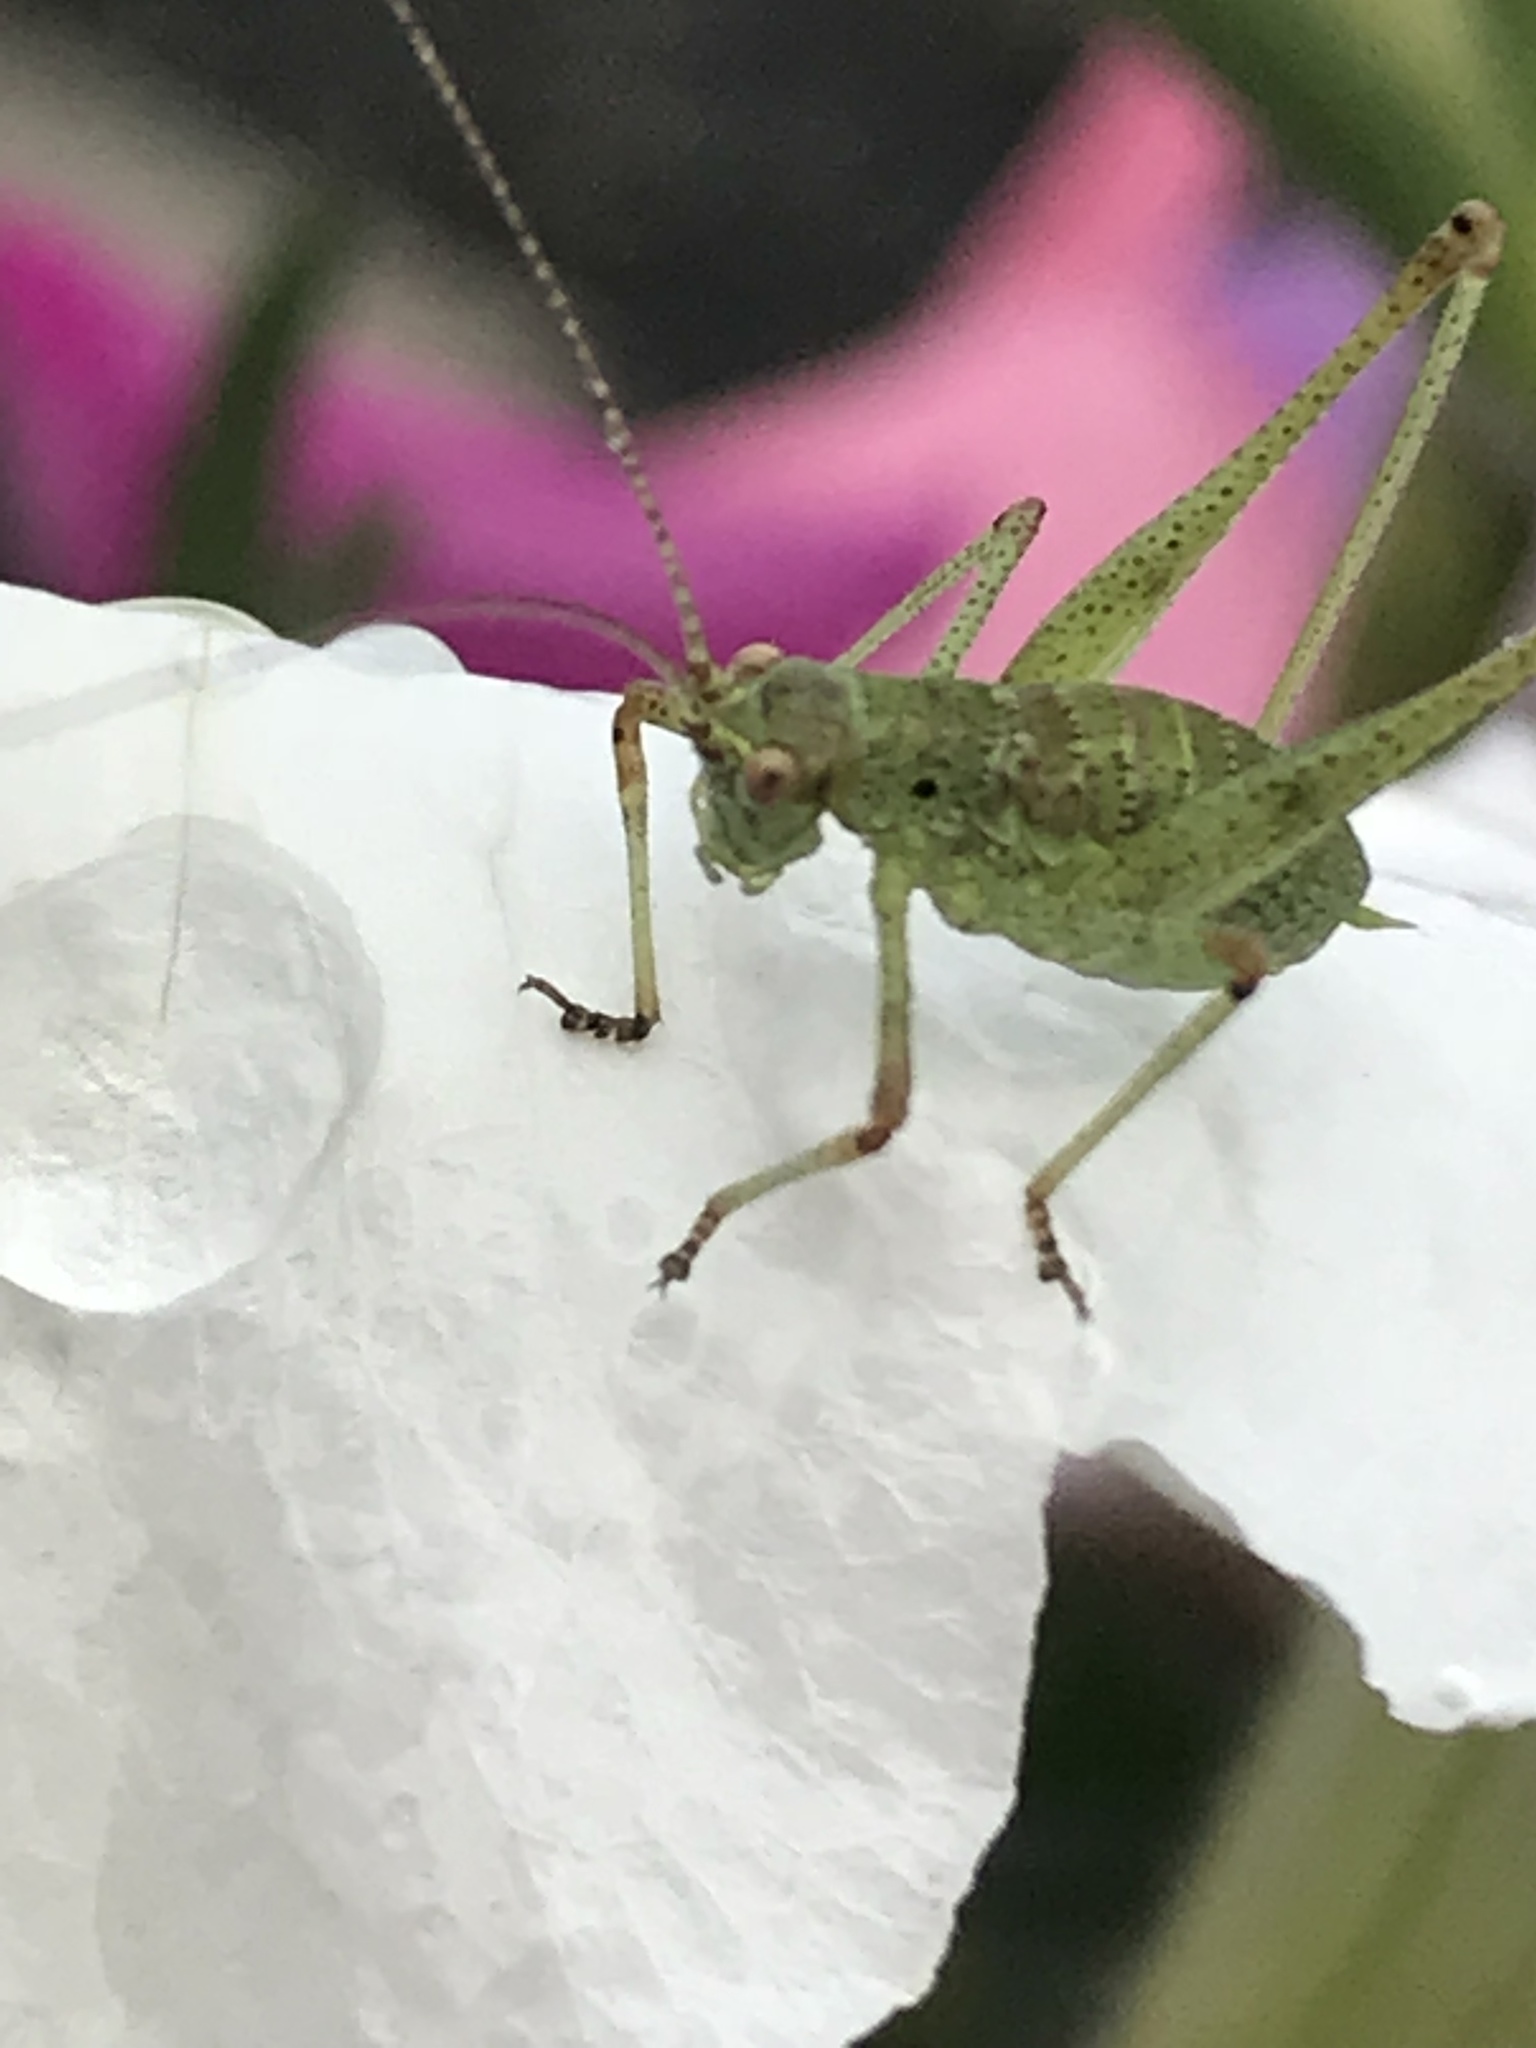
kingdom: Animalia
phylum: Arthropoda
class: Insecta
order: Orthoptera
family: Tettigoniidae
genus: Phaneroptera
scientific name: Phaneroptera nana
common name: Southern sickle bush-cricket
